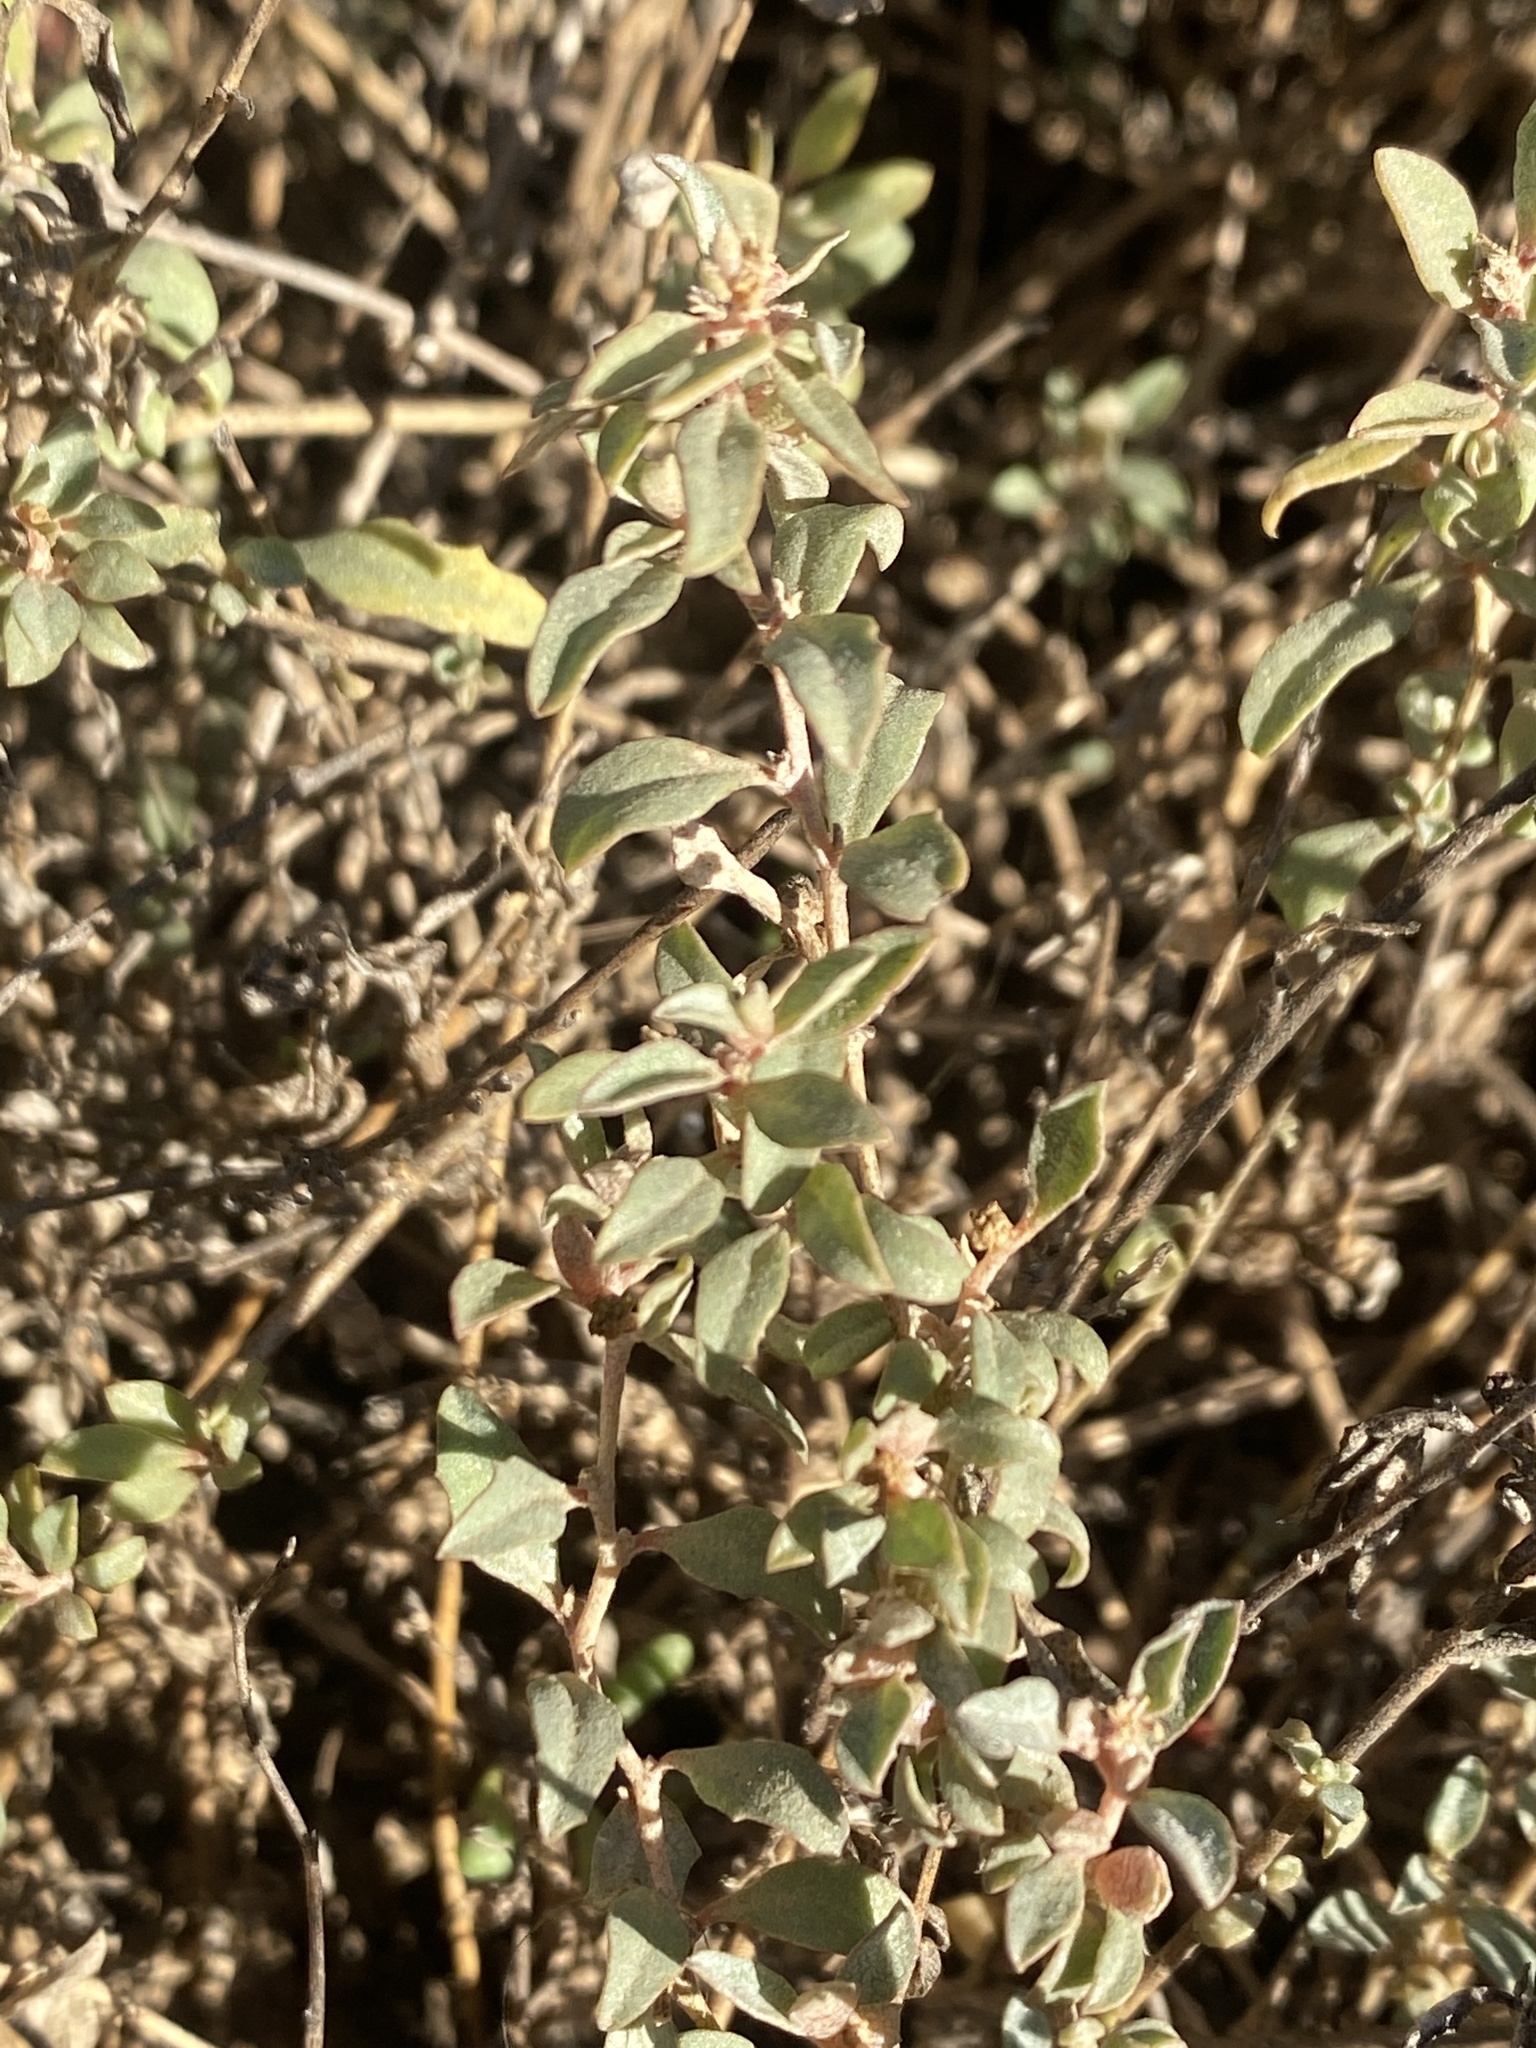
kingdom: Plantae
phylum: Tracheophyta
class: Magnoliopsida
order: Caryophyllales
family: Amaranthaceae
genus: Atriplex
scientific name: Atriplex semibaccata
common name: Australian saltbush
